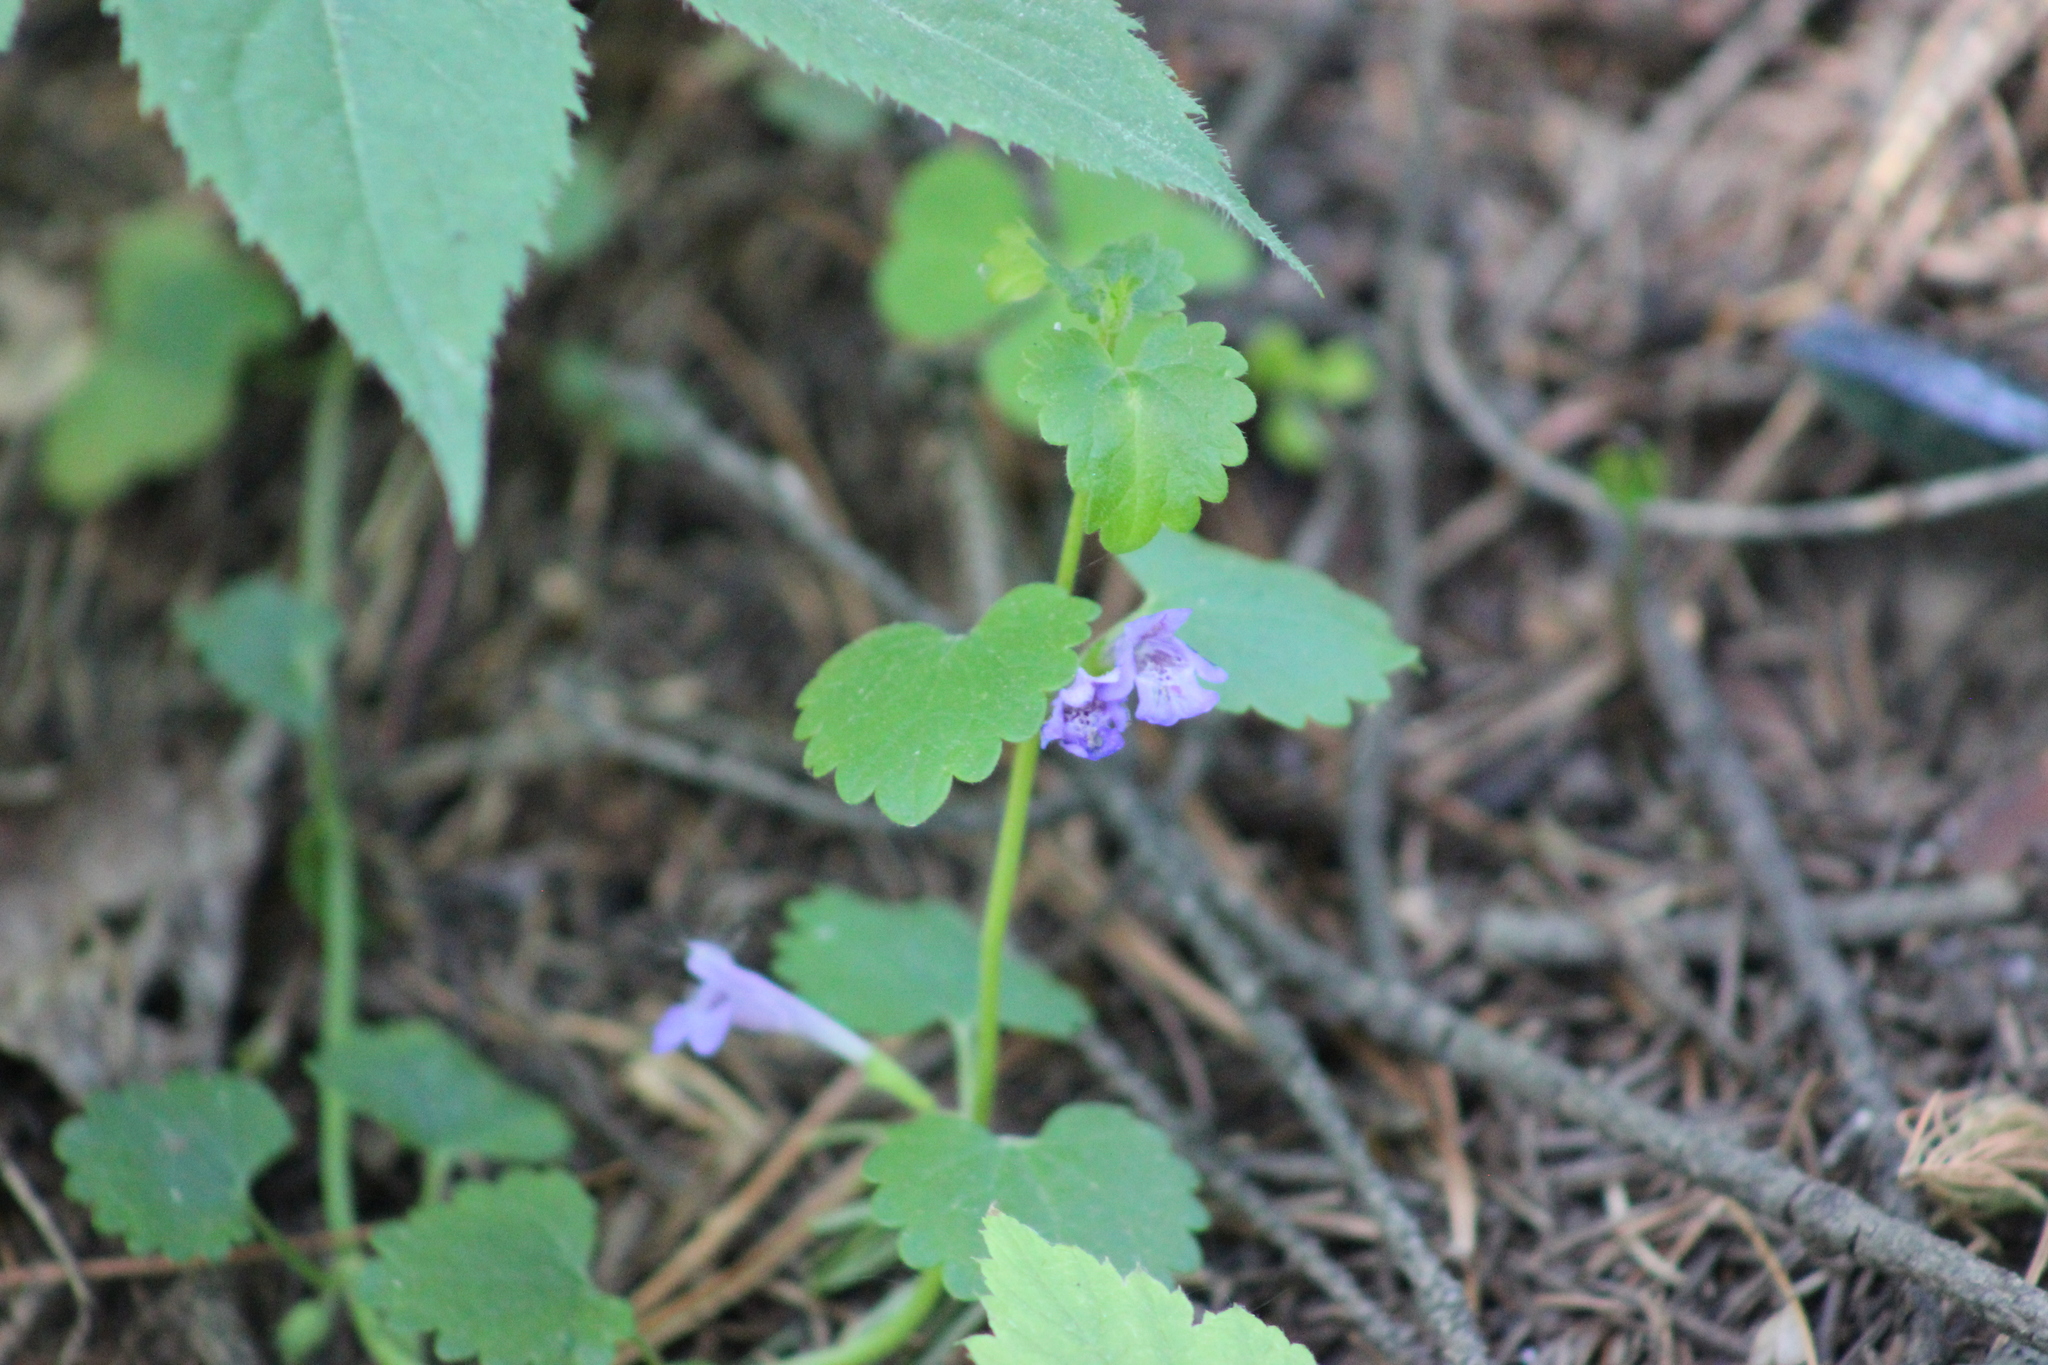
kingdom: Plantae
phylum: Tracheophyta
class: Magnoliopsida
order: Lamiales
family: Lamiaceae
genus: Glechoma
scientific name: Glechoma hederacea
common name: Ground ivy
